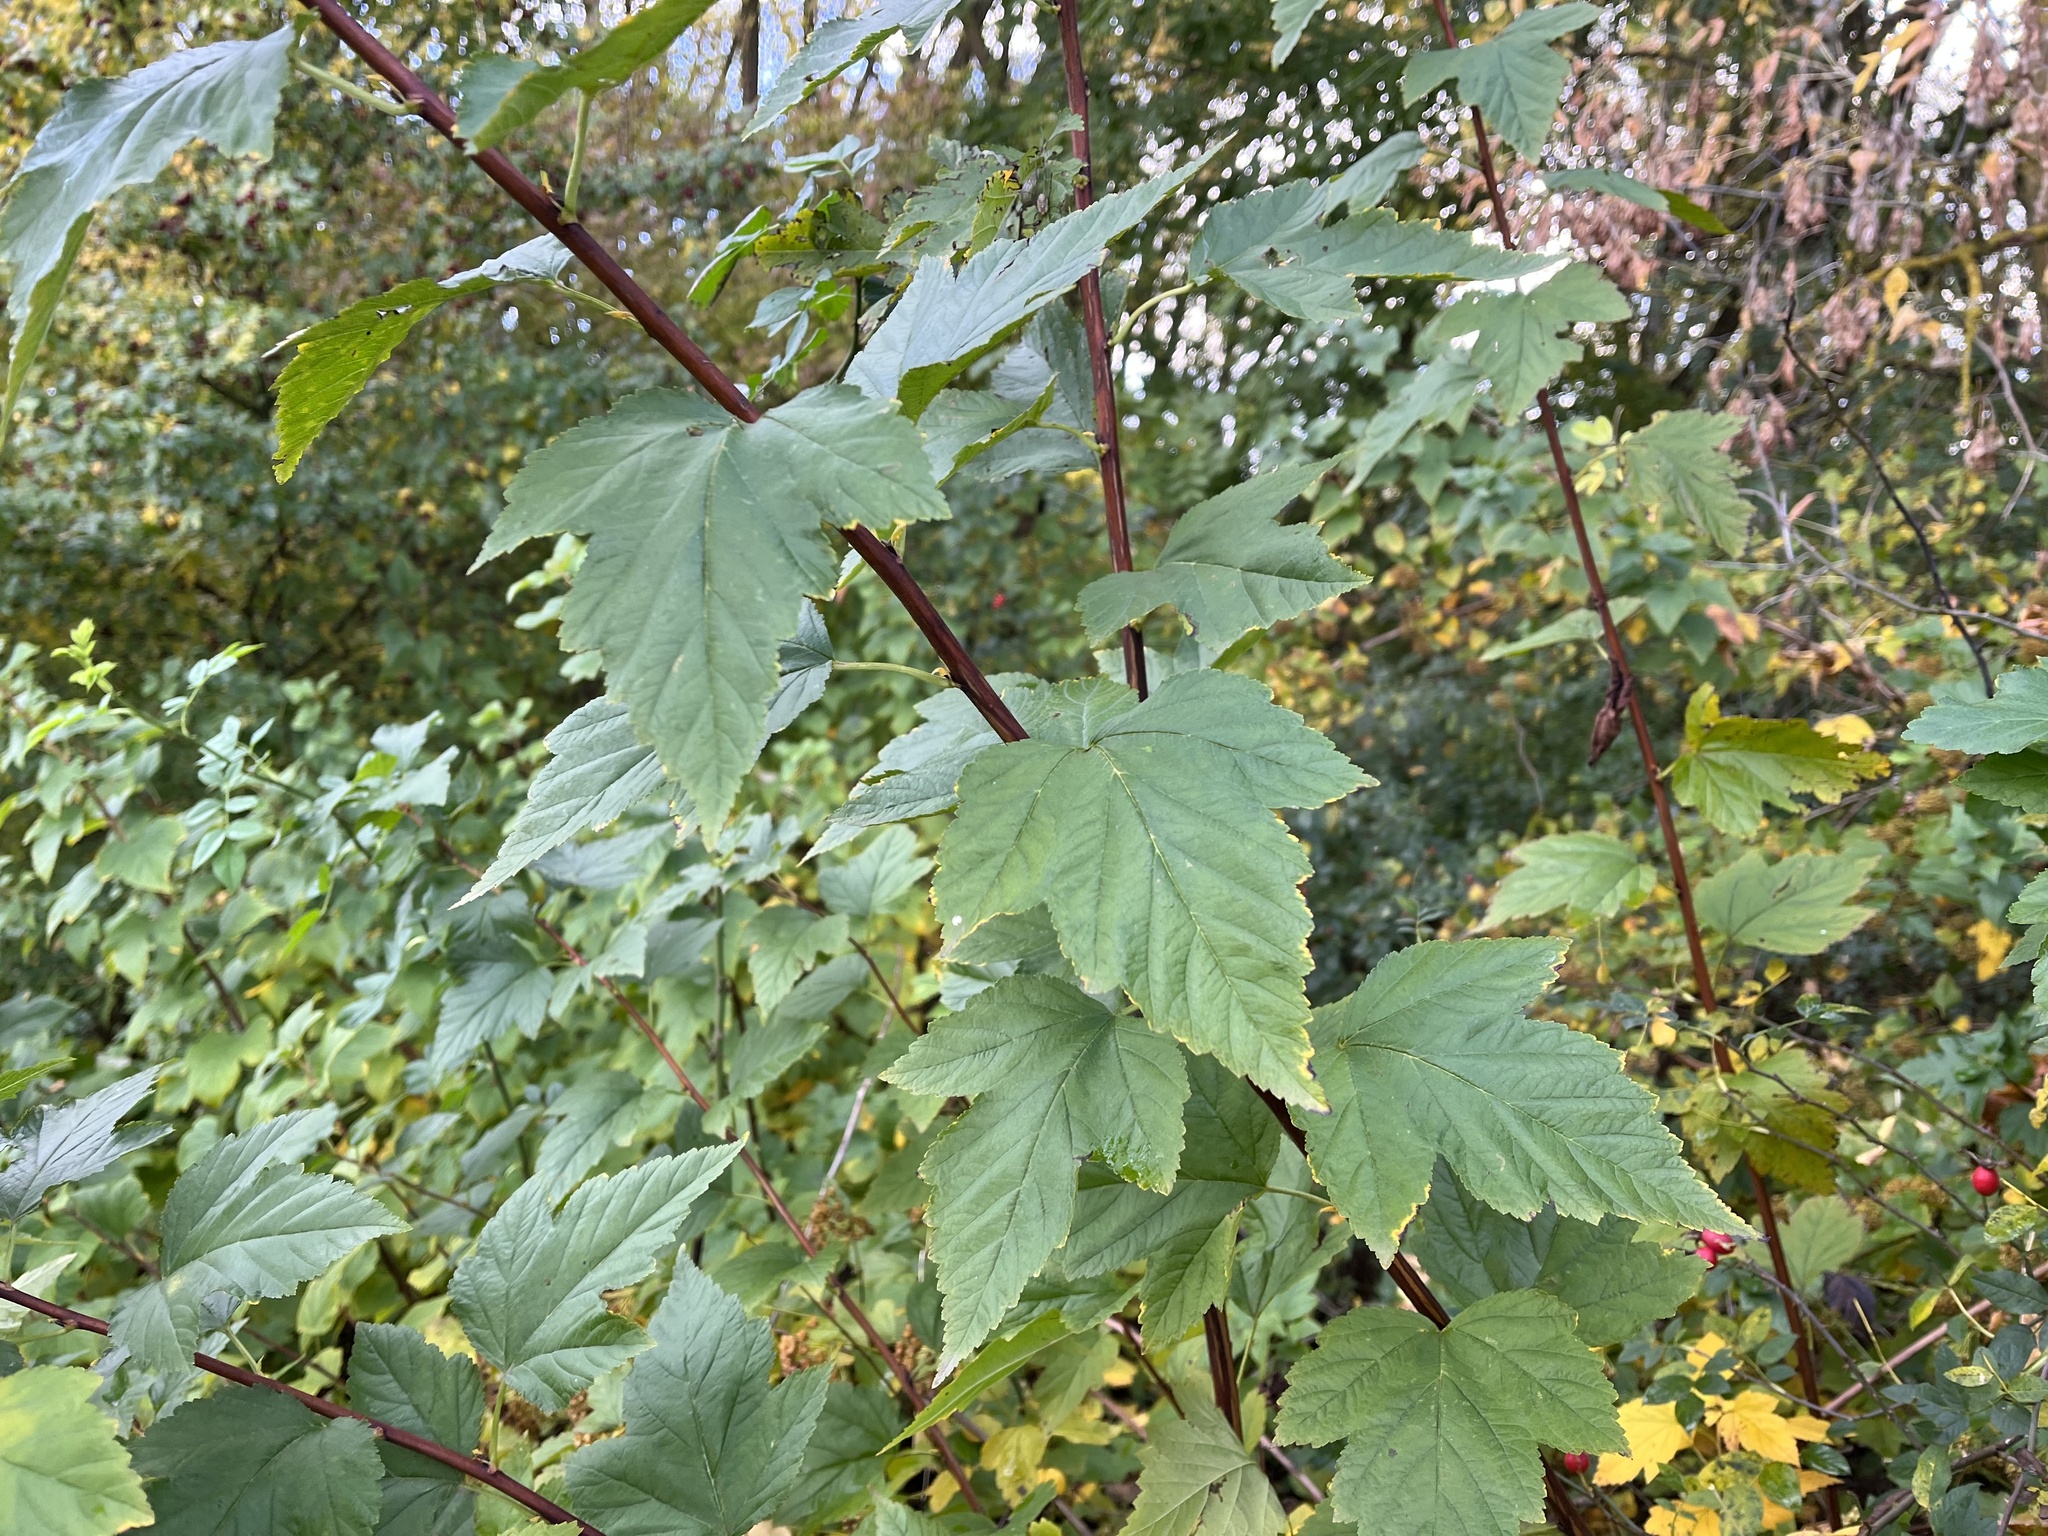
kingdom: Plantae
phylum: Tracheophyta
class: Magnoliopsida
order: Rosales
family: Rosaceae
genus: Physocarpus
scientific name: Physocarpus opulifolius
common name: Ninebark
